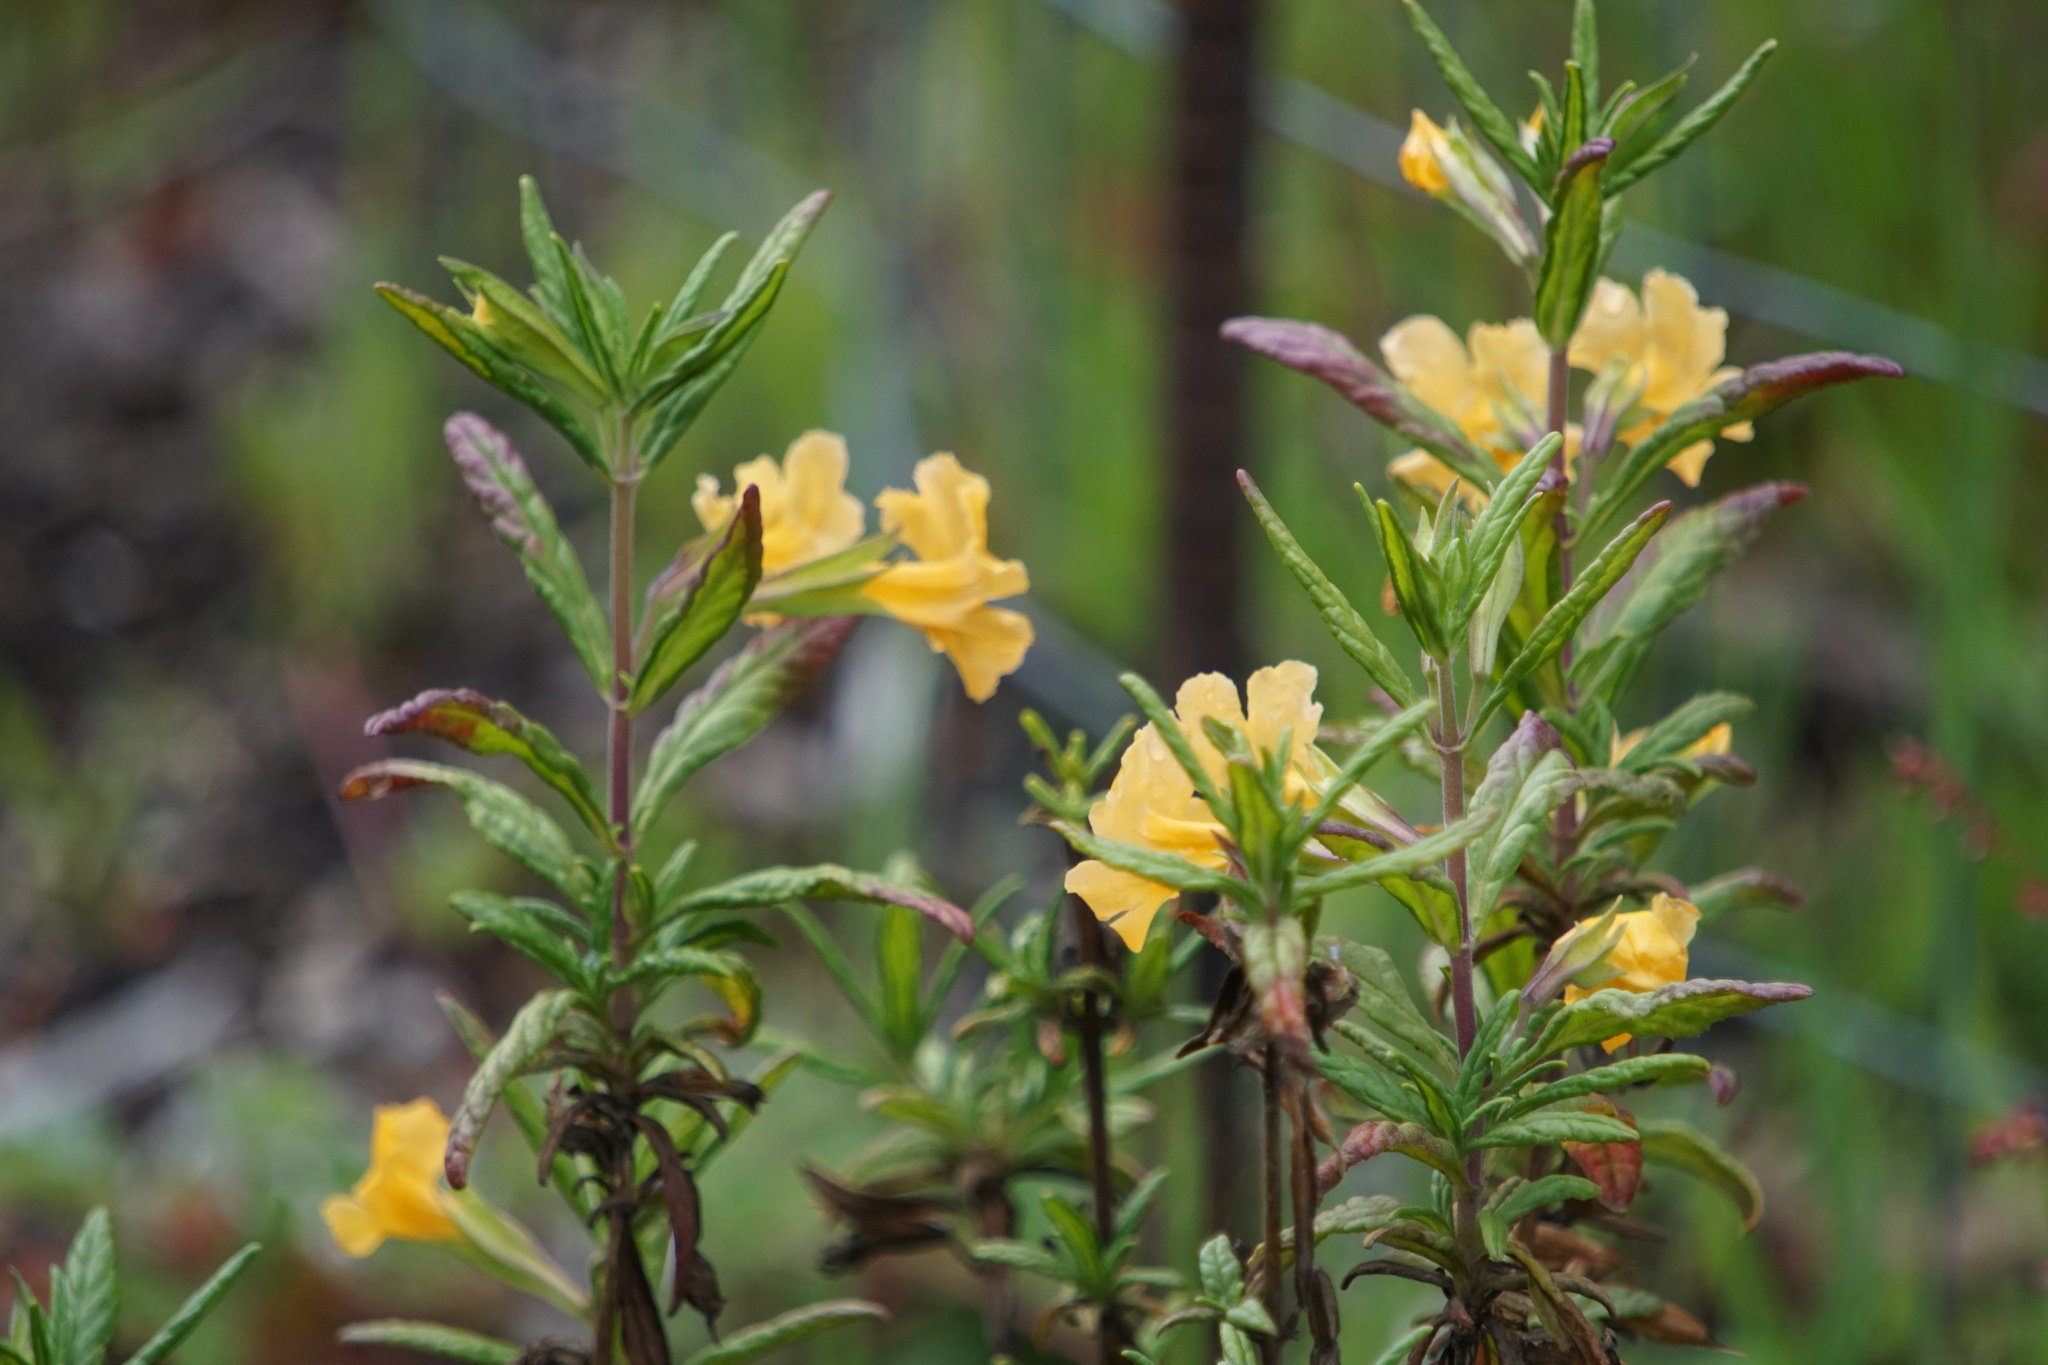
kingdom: Plantae
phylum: Tracheophyta
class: Magnoliopsida
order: Lamiales
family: Phrymaceae
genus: Diplacus
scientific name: Diplacus aurantiacus
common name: Bush monkey-flower
